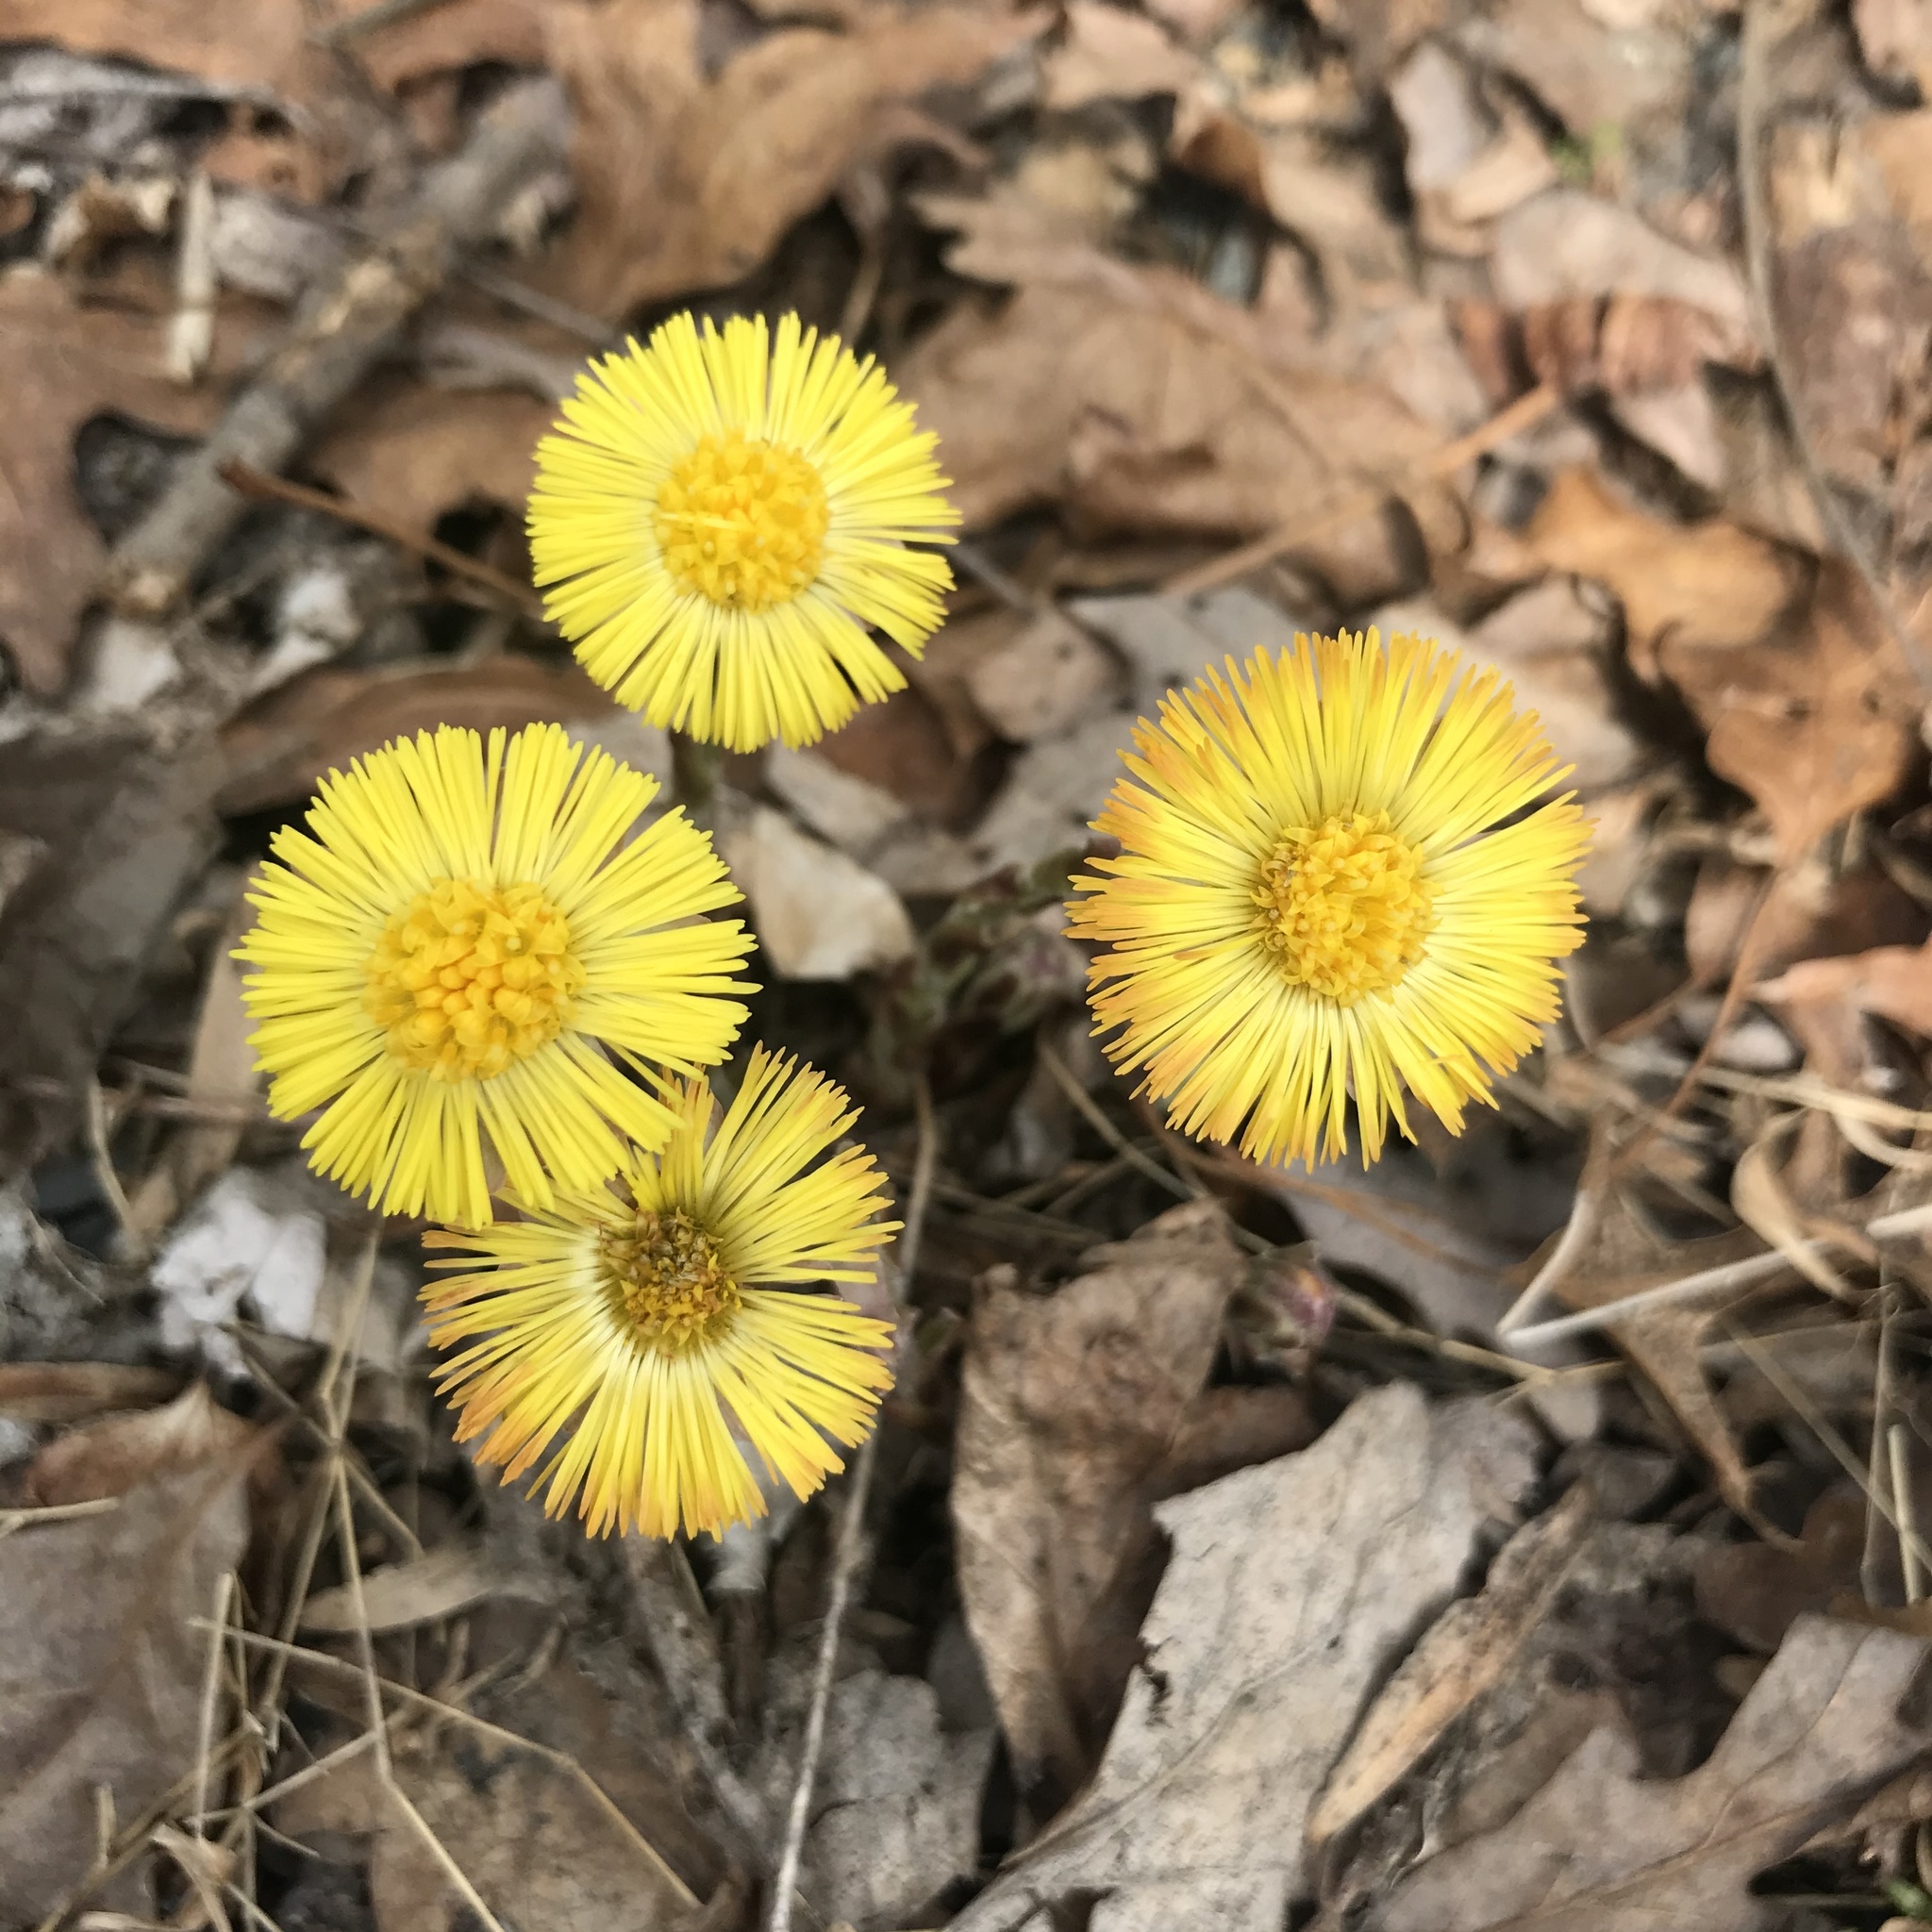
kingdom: Plantae
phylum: Tracheophyta
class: Magnoliopsida
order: Asterales
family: Asteraceae
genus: Tussilago
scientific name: Tussilago farfara
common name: Coltsfoot
